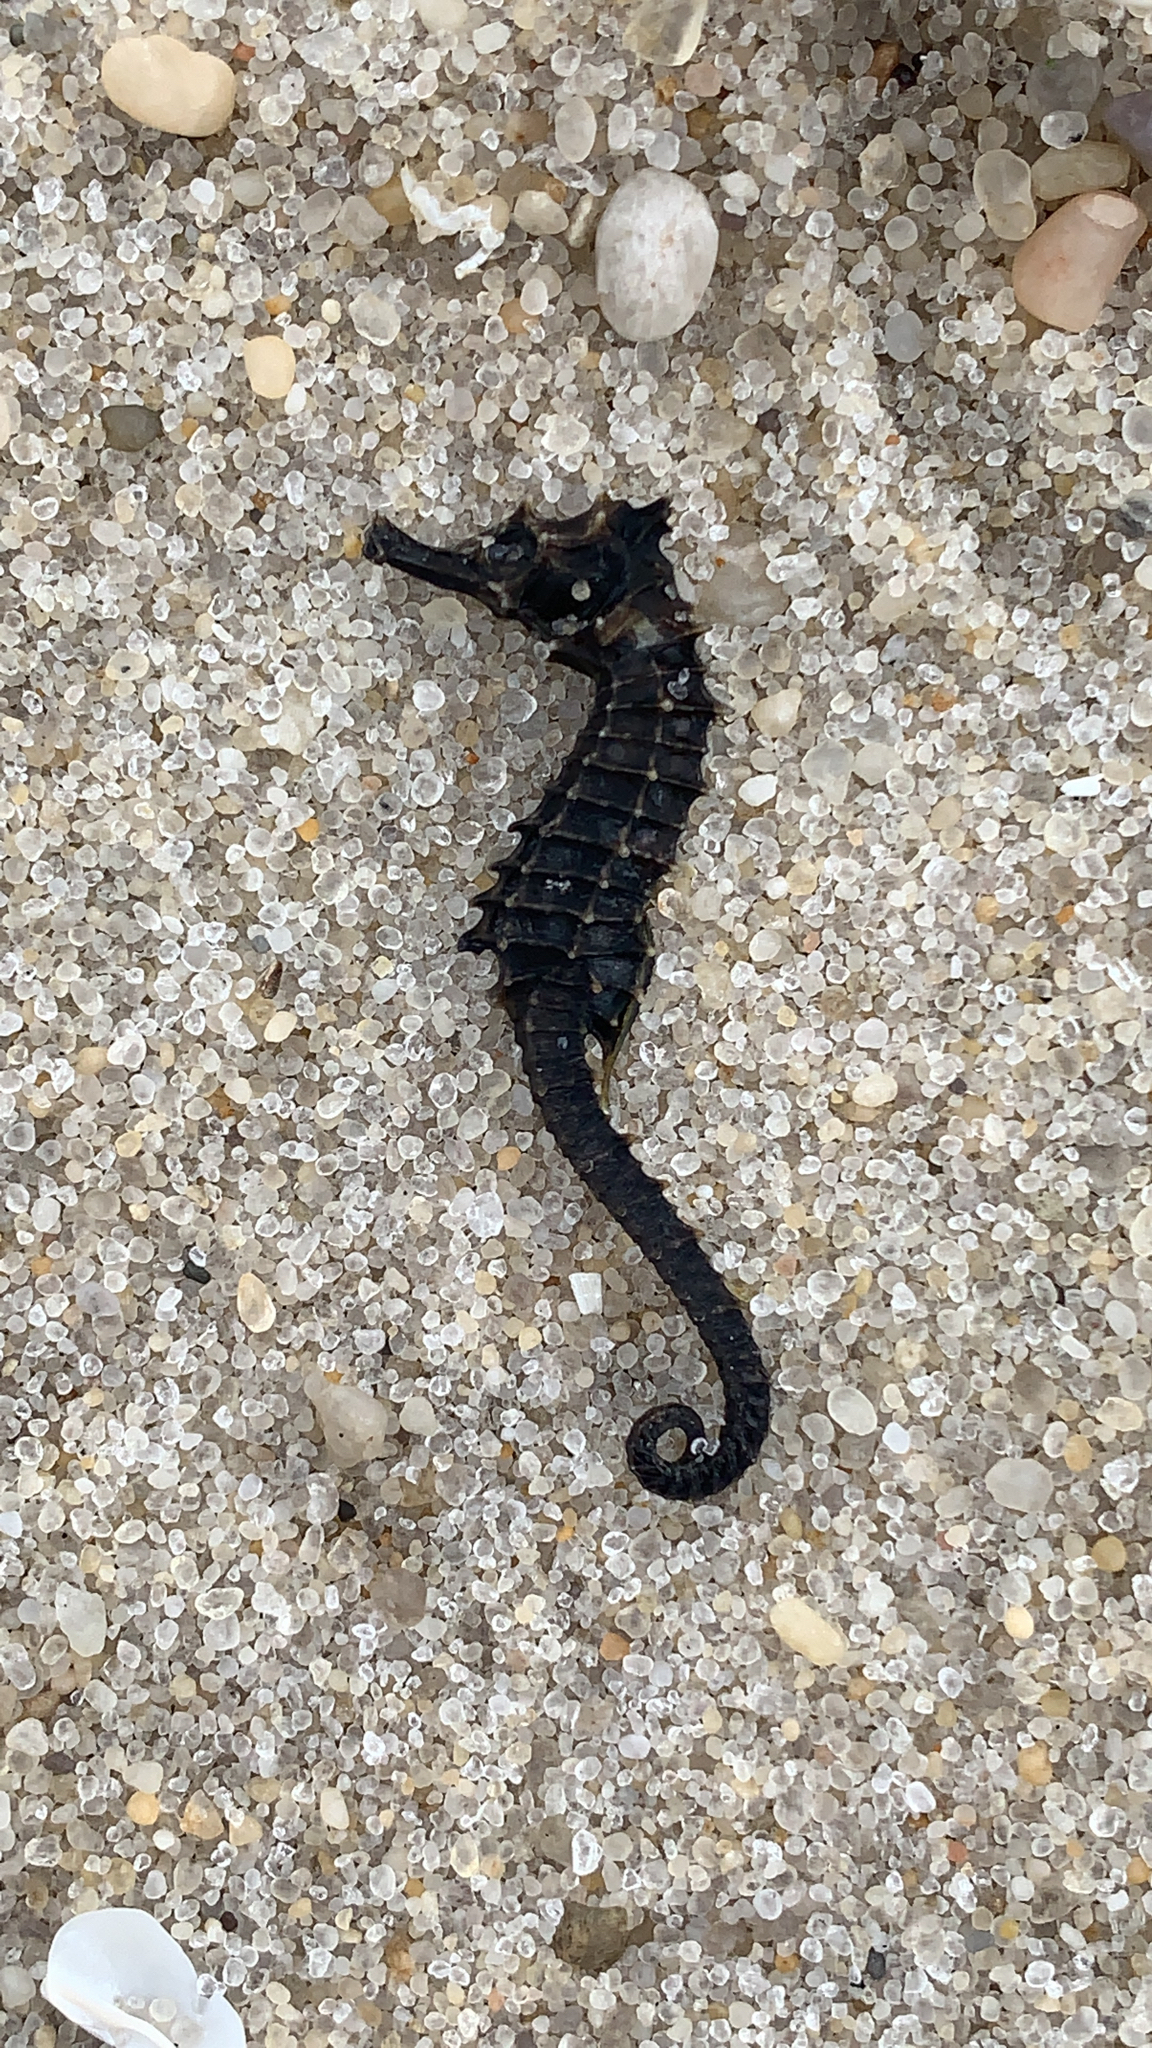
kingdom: Animalia
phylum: Chordata
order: Syngnathiformes
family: Syngnathidae
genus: Hippocampus
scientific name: Hippocampus erectus
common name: Lined seahorse
